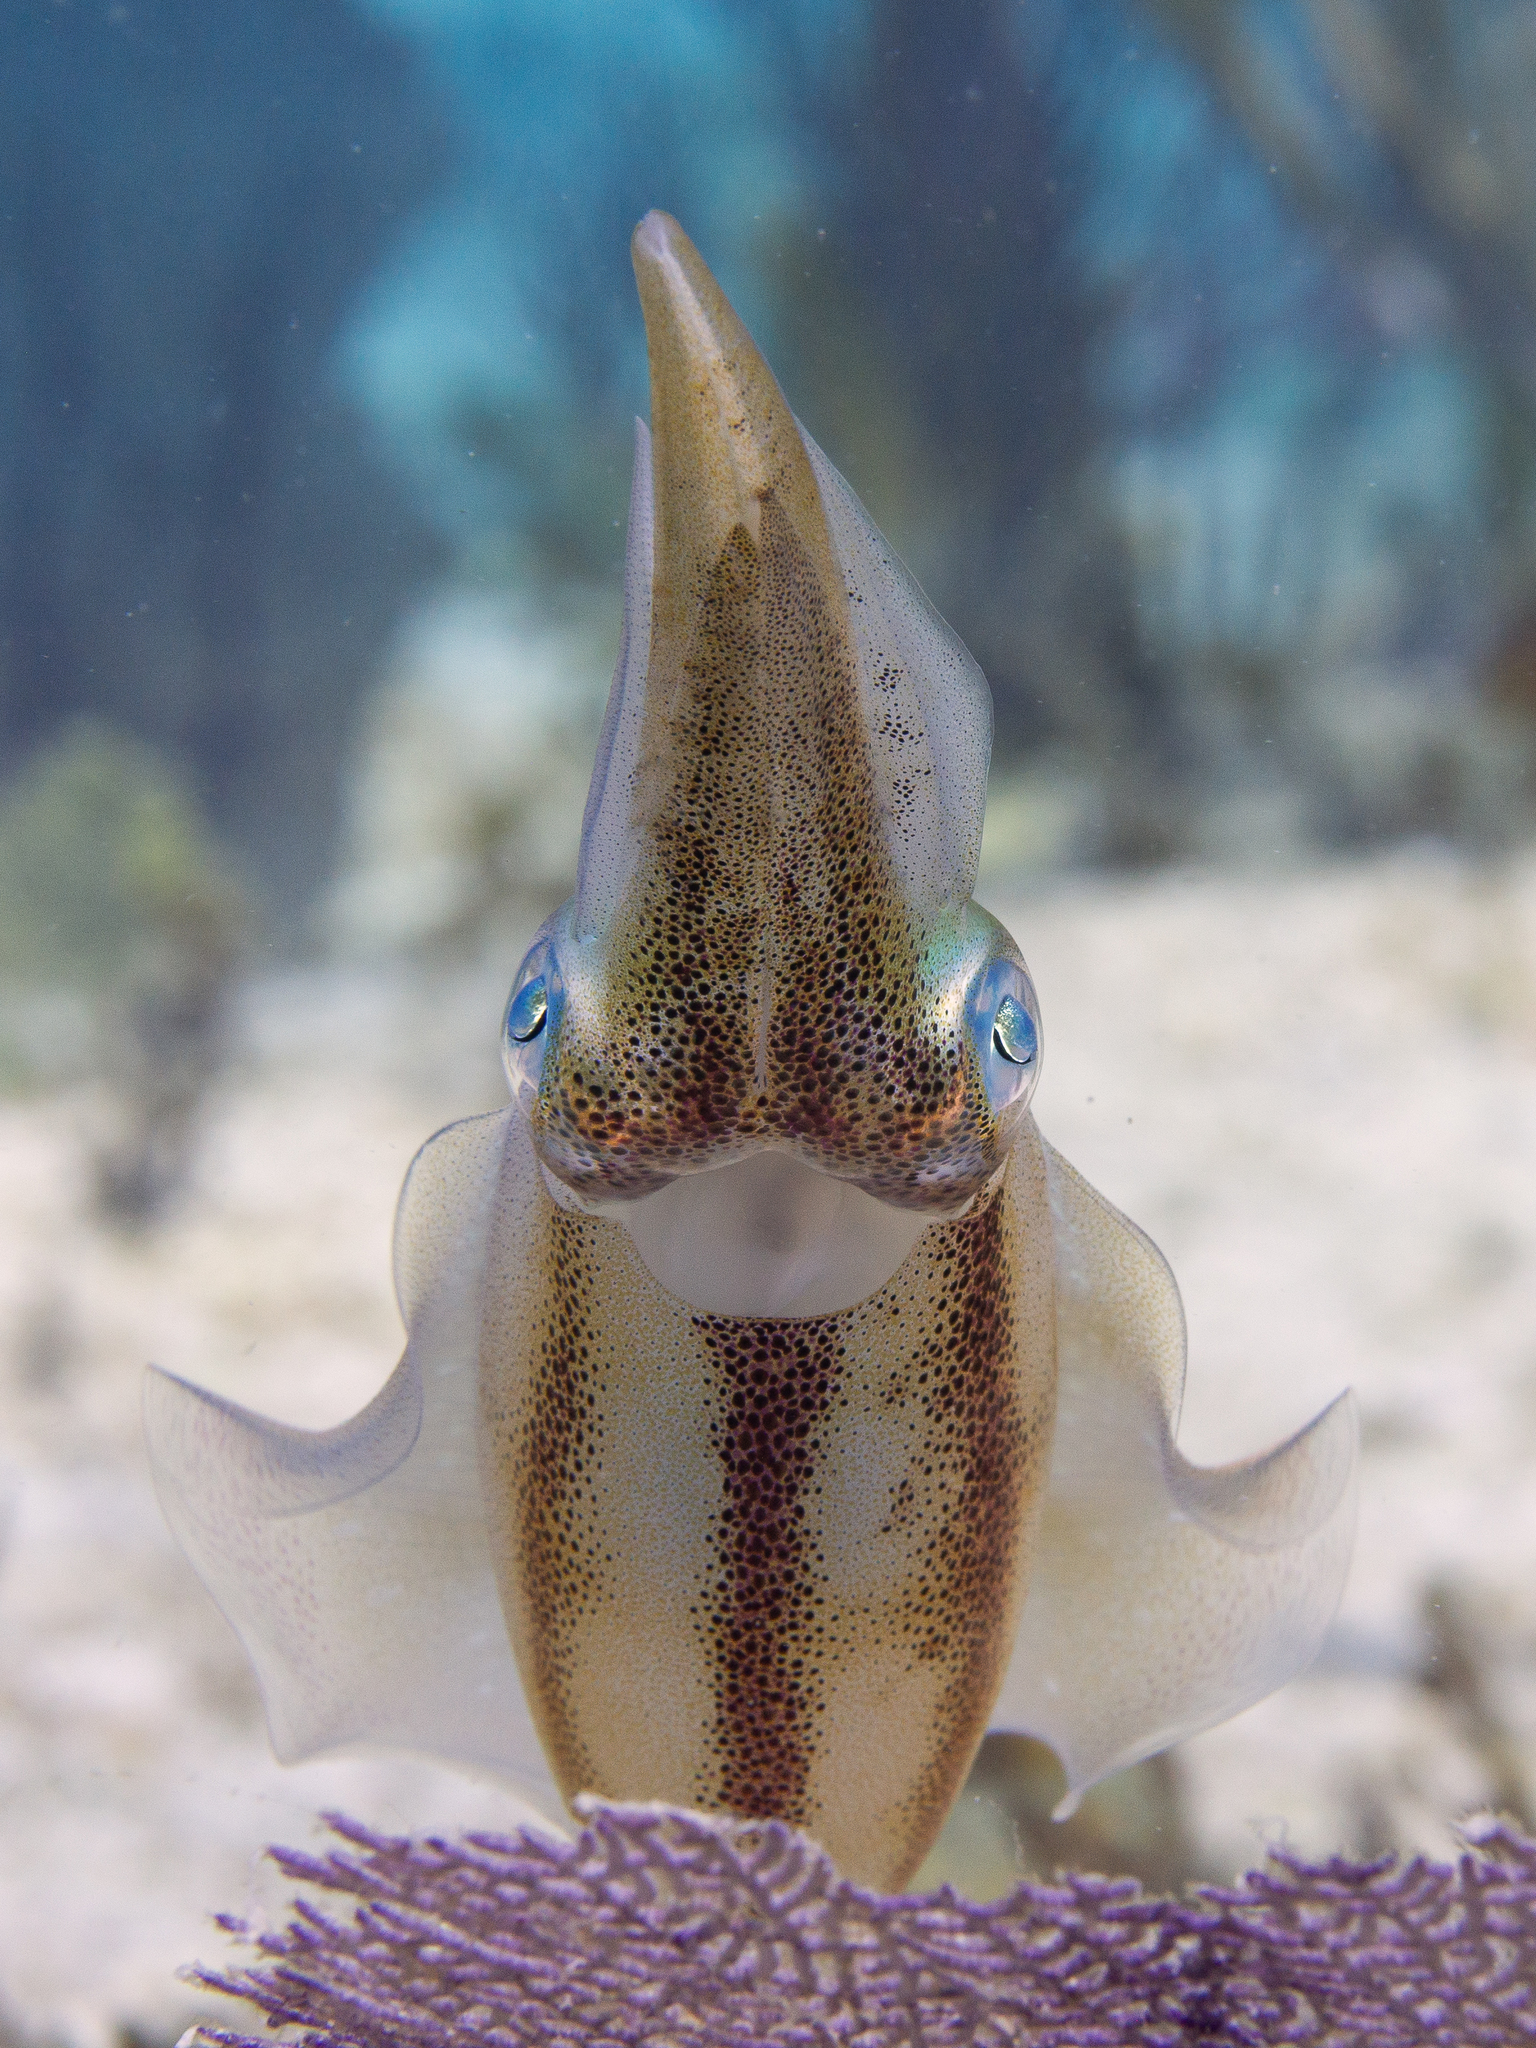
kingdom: Animalia
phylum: Mollusca
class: Cephalopoda
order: Myopsida
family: Loliginidae
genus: Sepioteuthis
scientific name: Sepioteuthis sepioidea
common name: Caribbean reef squid
